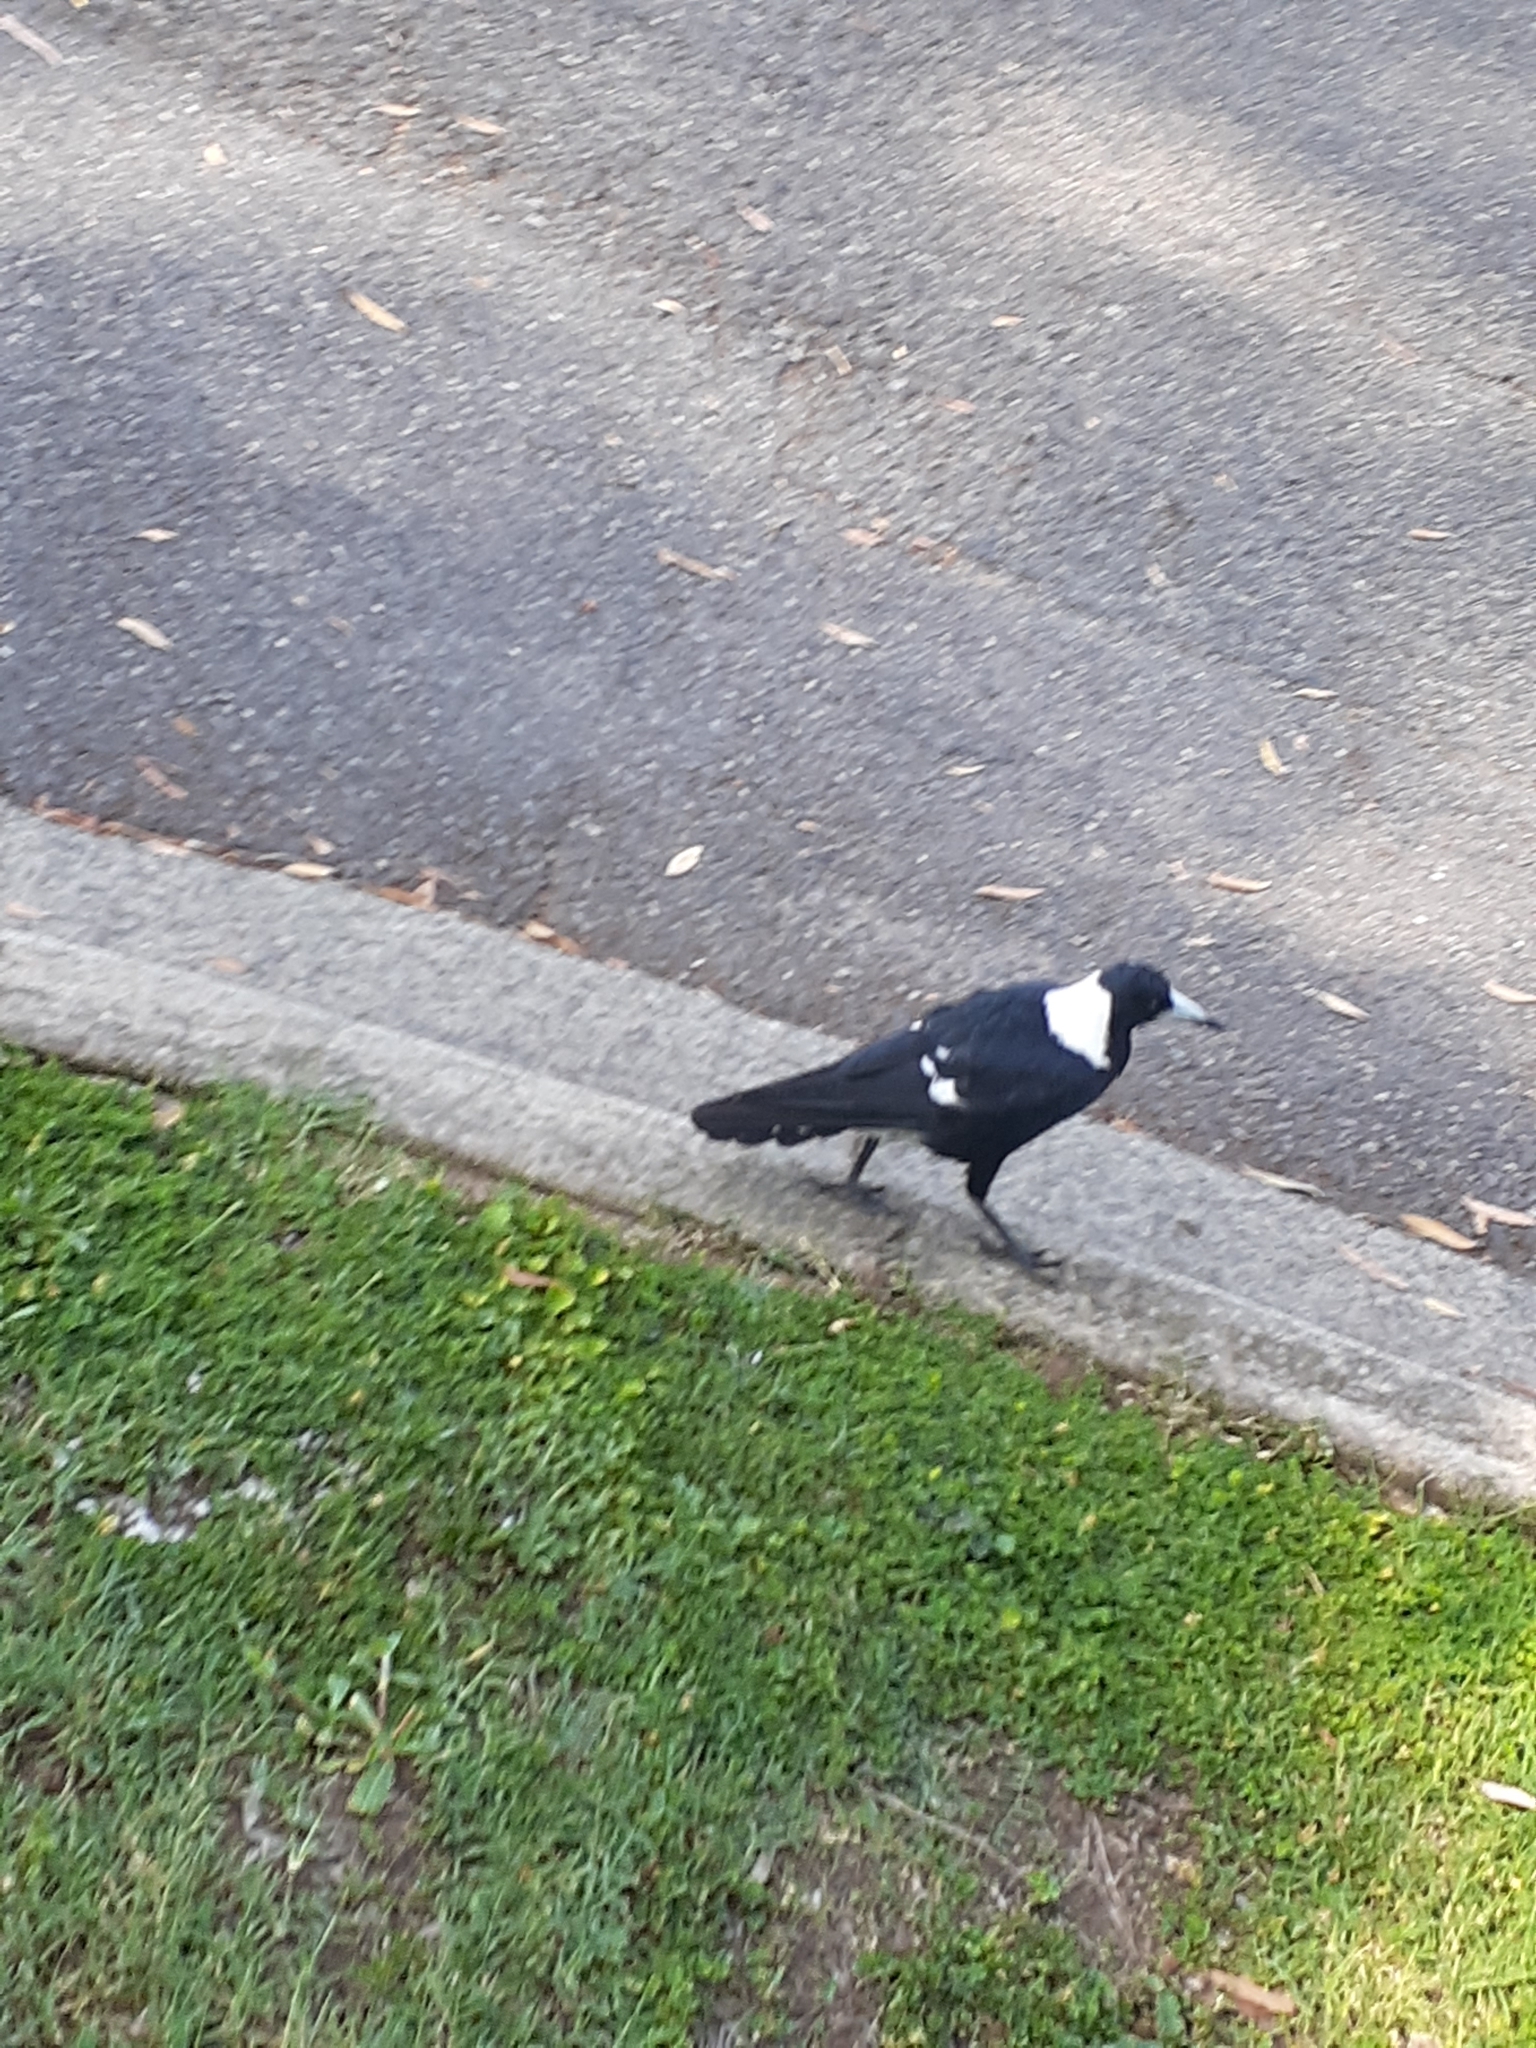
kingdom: Animalia
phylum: Chordata
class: Aves
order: Passeriformes
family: Cracticidae
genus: Gymnorhina
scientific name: Gymnorhina tibicen
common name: Australian magpie
